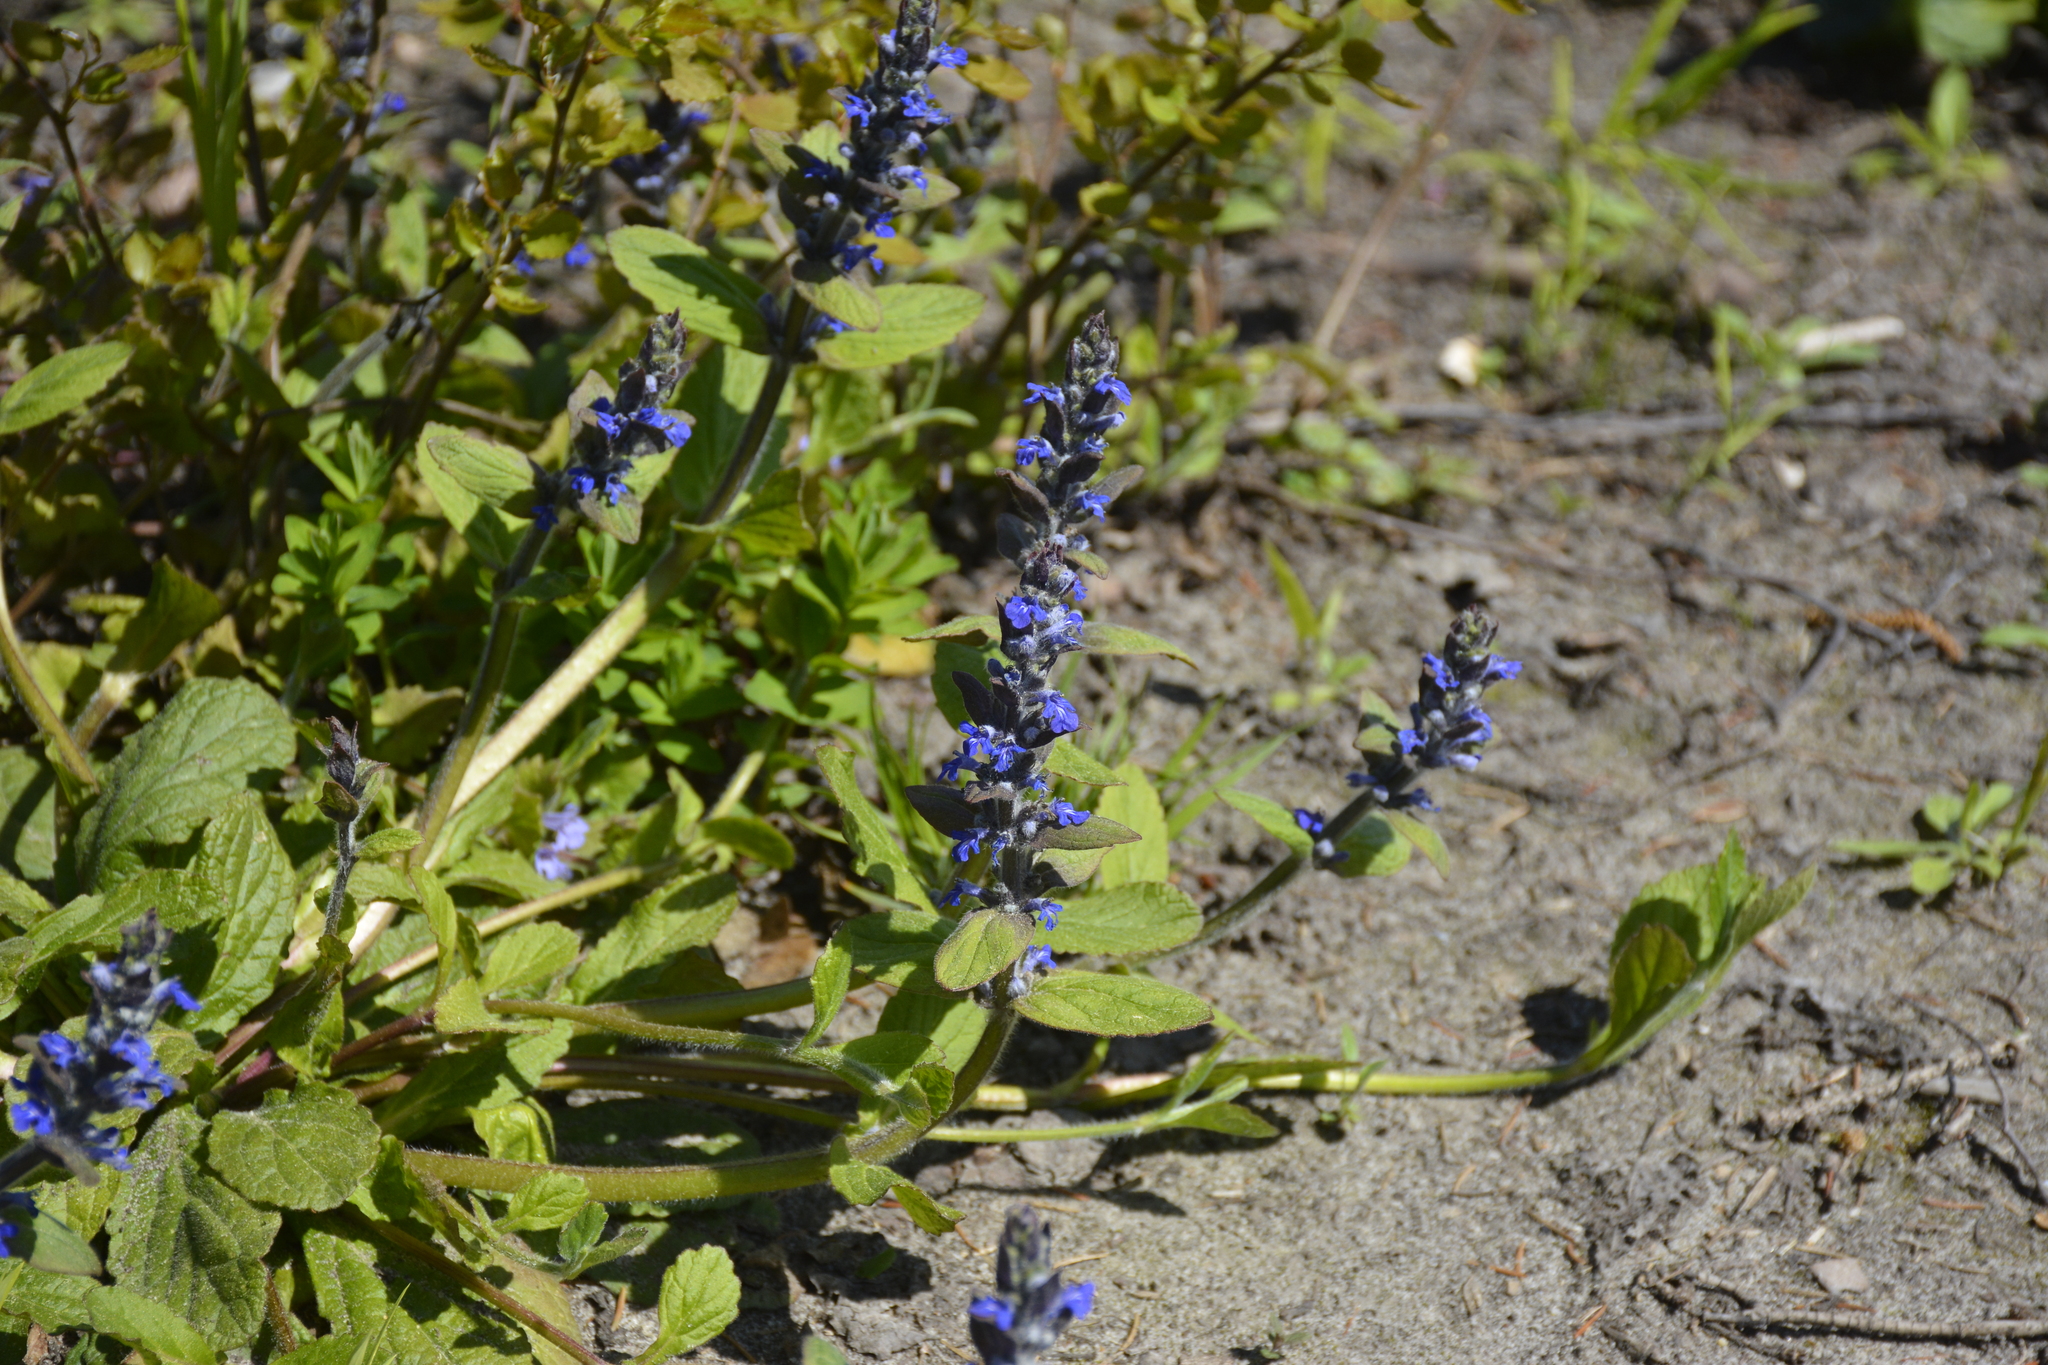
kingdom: Plantae
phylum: Tracheophyta
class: Magnoliopsida
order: Lamiales
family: Lamiaceae
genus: Ajuga
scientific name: Ajuga reptans
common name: Bugle
